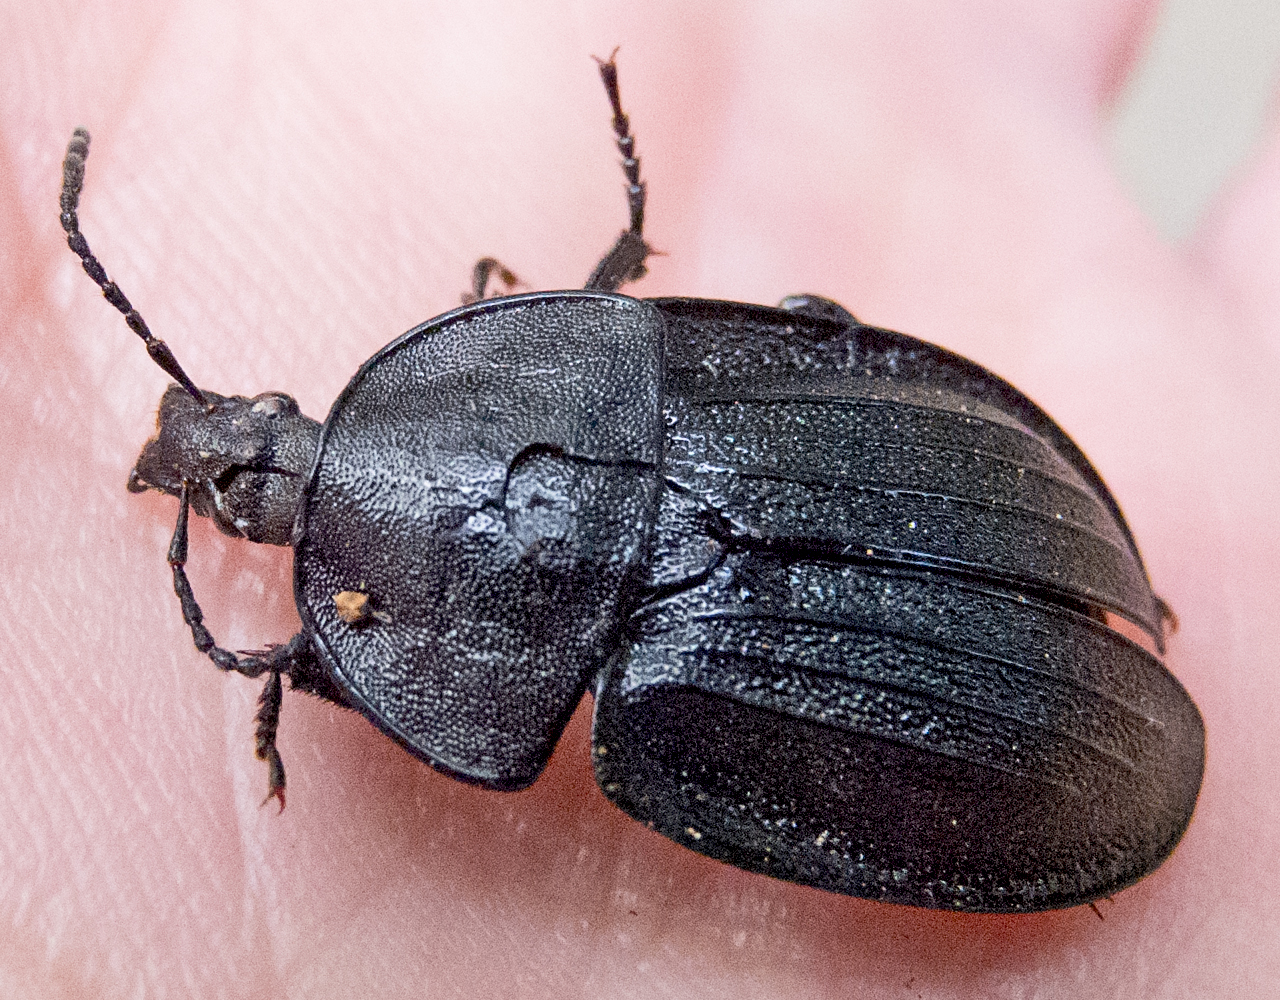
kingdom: Animalia
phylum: Arthropoda
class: Insecta
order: Coleoptera
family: Staphylinidae
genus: Silpha
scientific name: Silpha atrata
